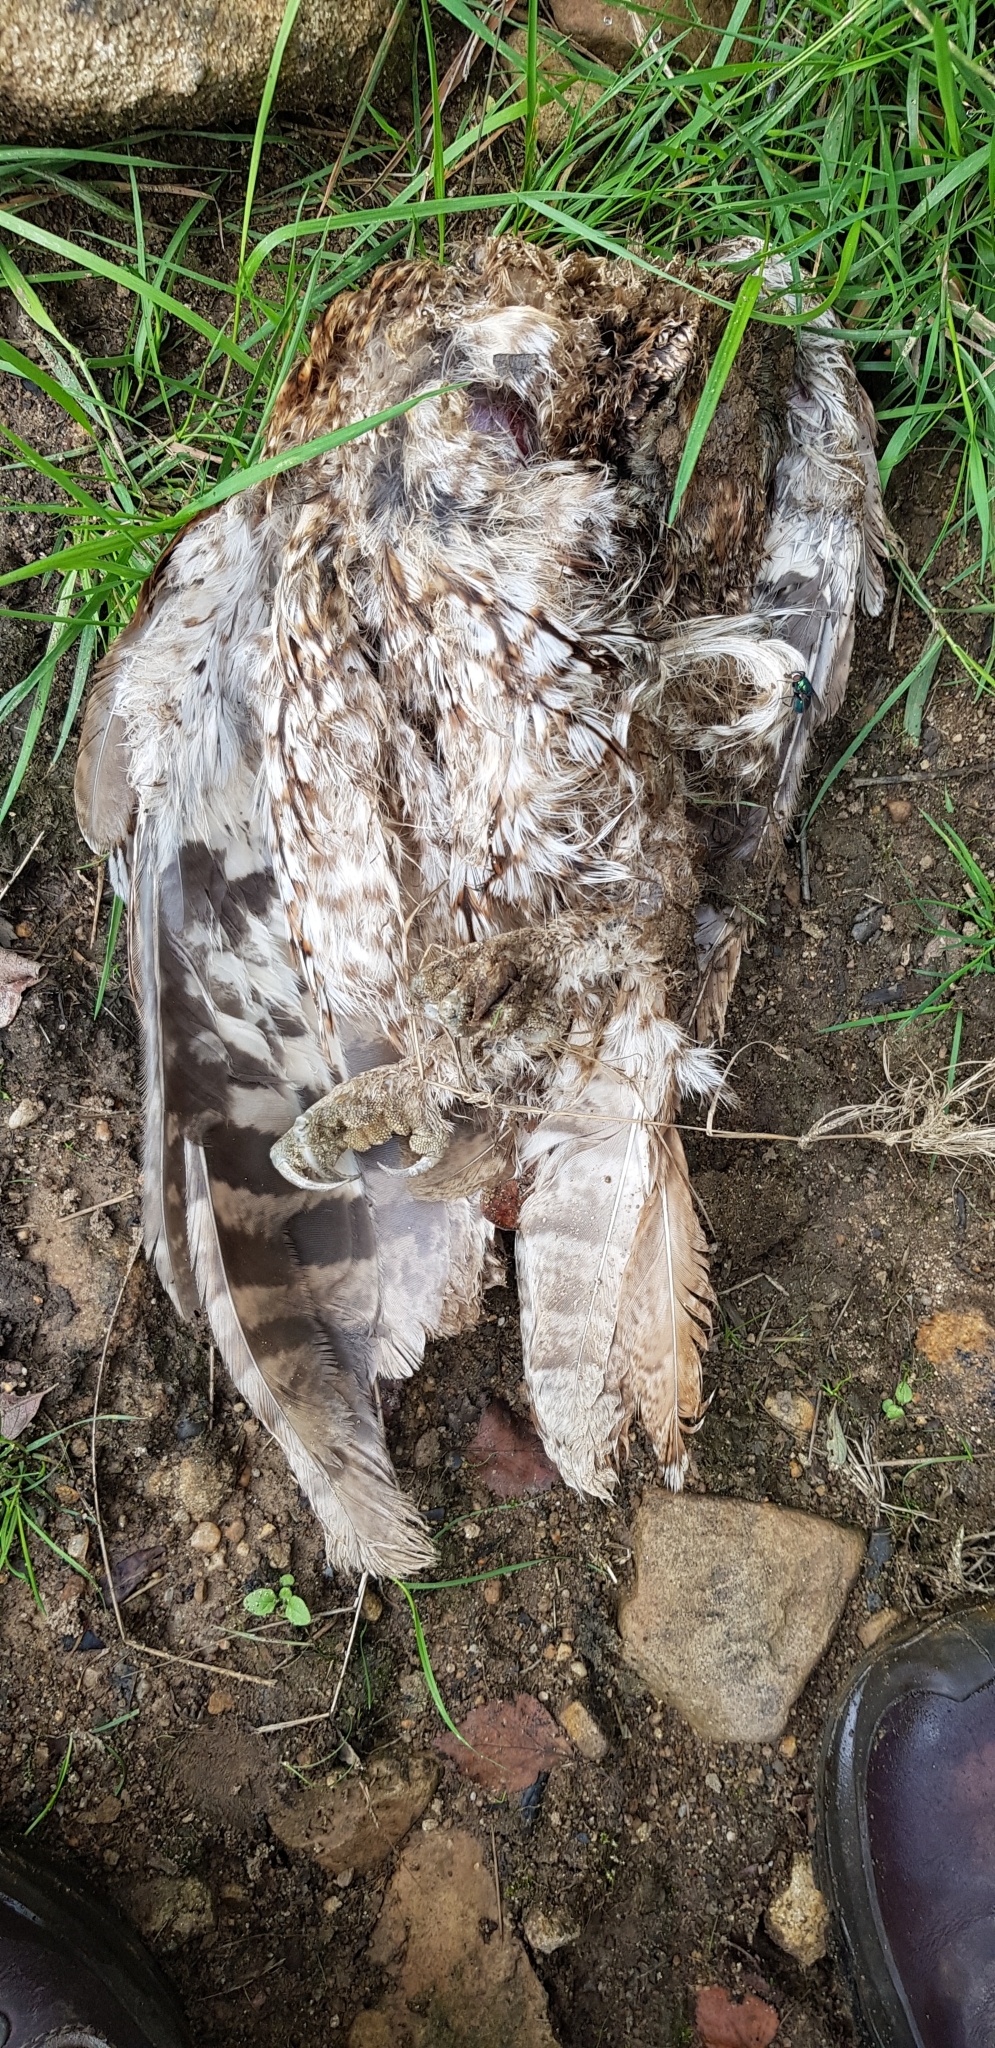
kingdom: Animalia
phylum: Arthropoda
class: Insecta
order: Coleoptera
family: Staphylinidae
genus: Nicrophorus
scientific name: Nicrophorus vespilloides
